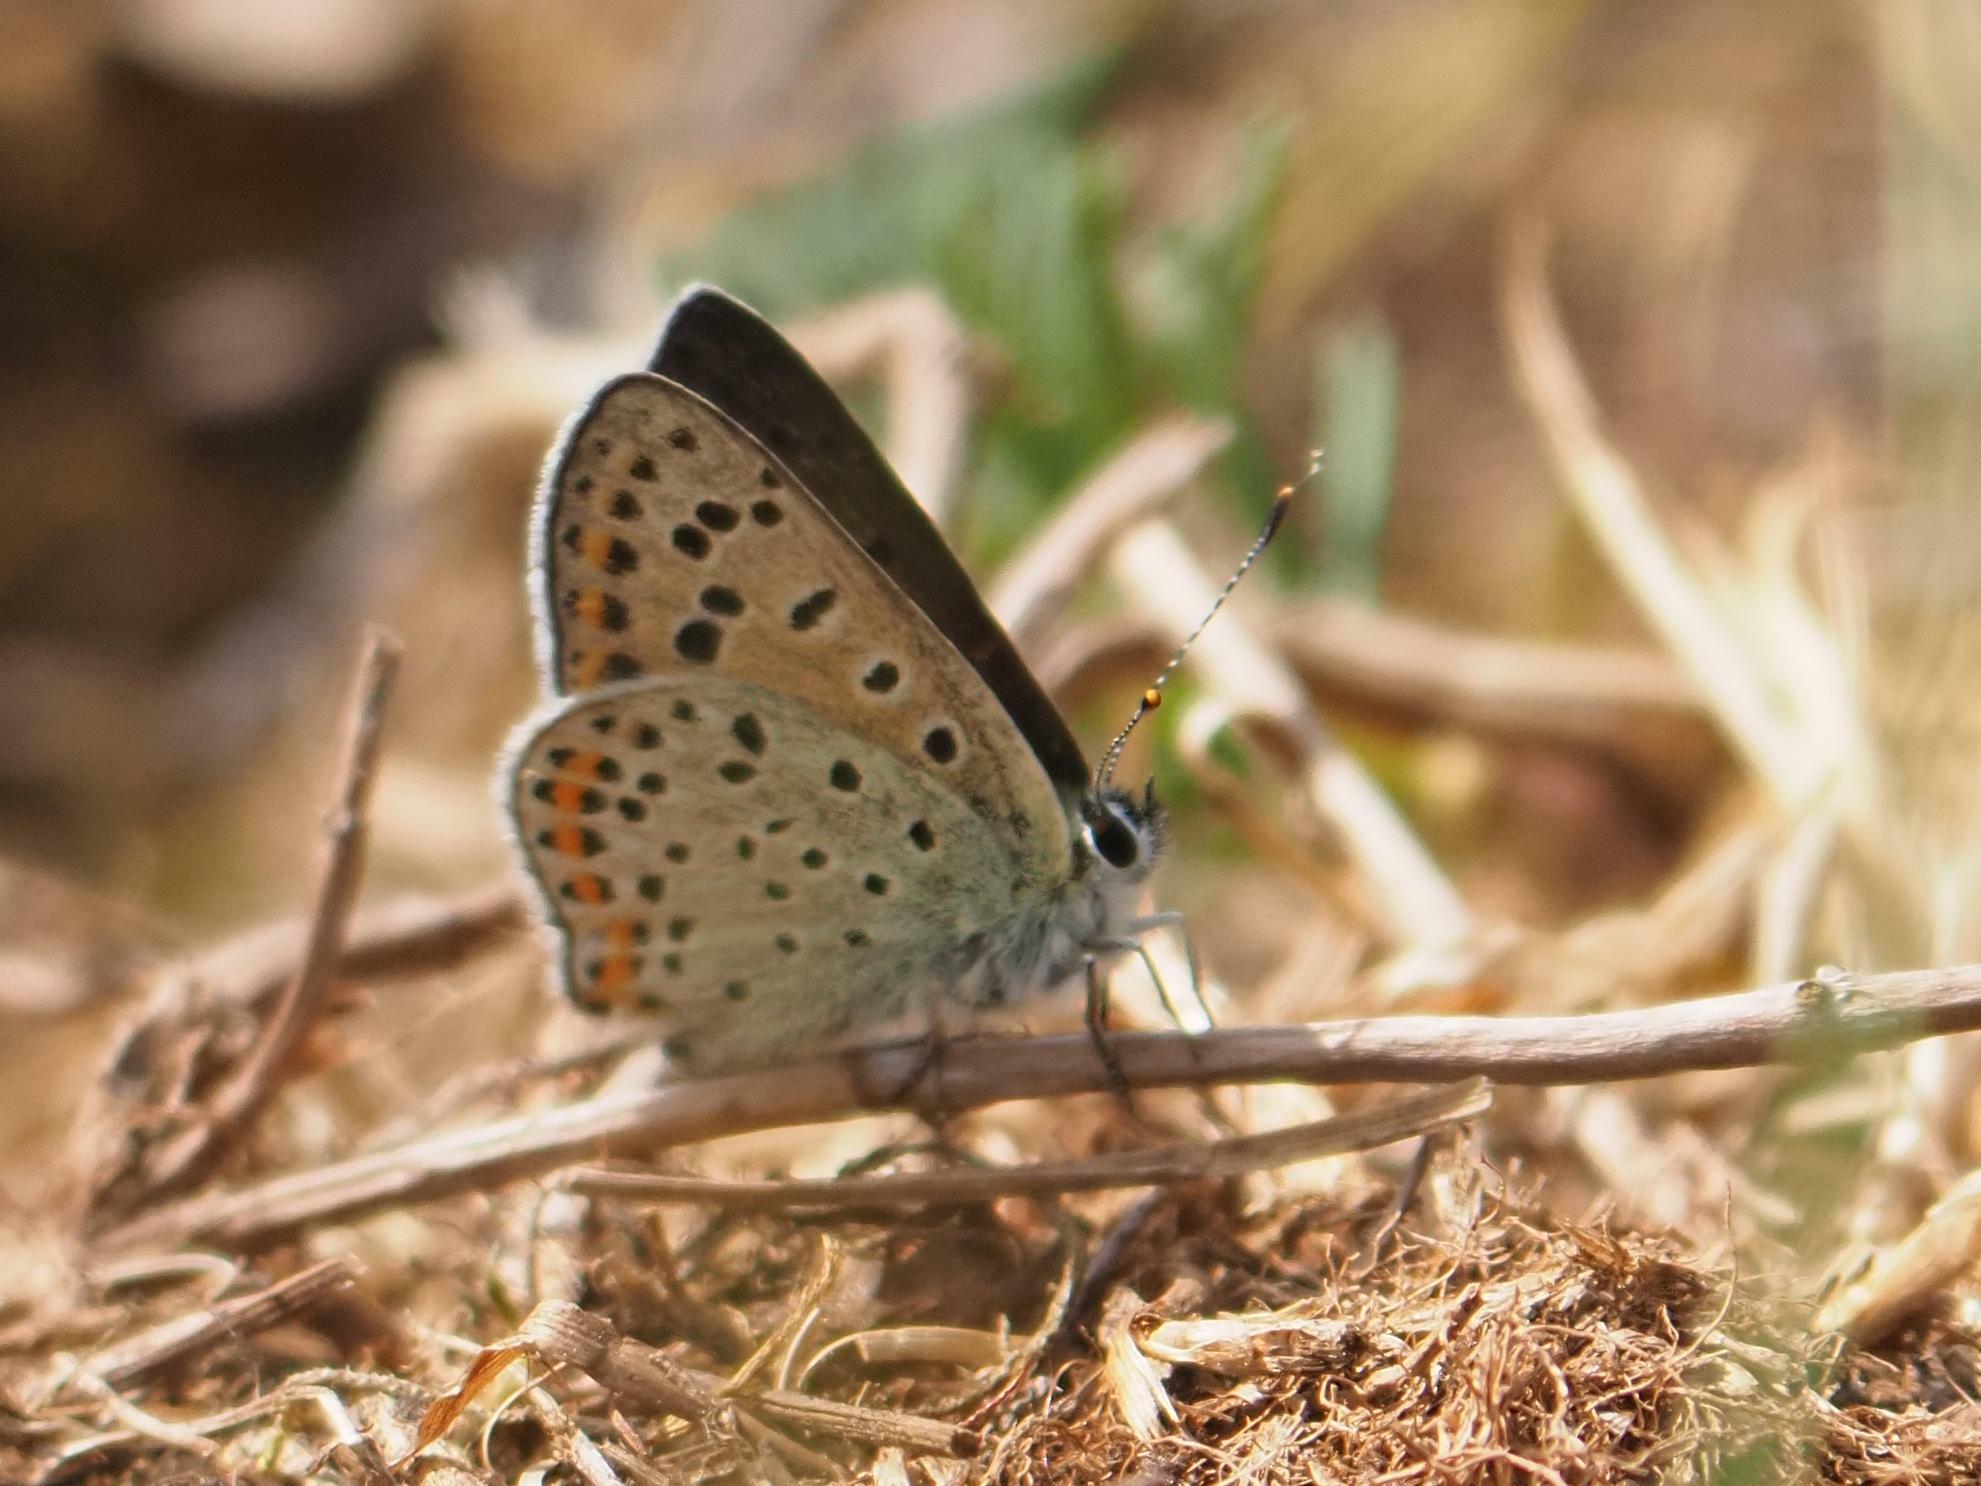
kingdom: Animalia
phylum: Arthropoda
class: Insecta
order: Lepidoptera
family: Lycaenidae
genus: Loweia
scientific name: Loweia tityrus
